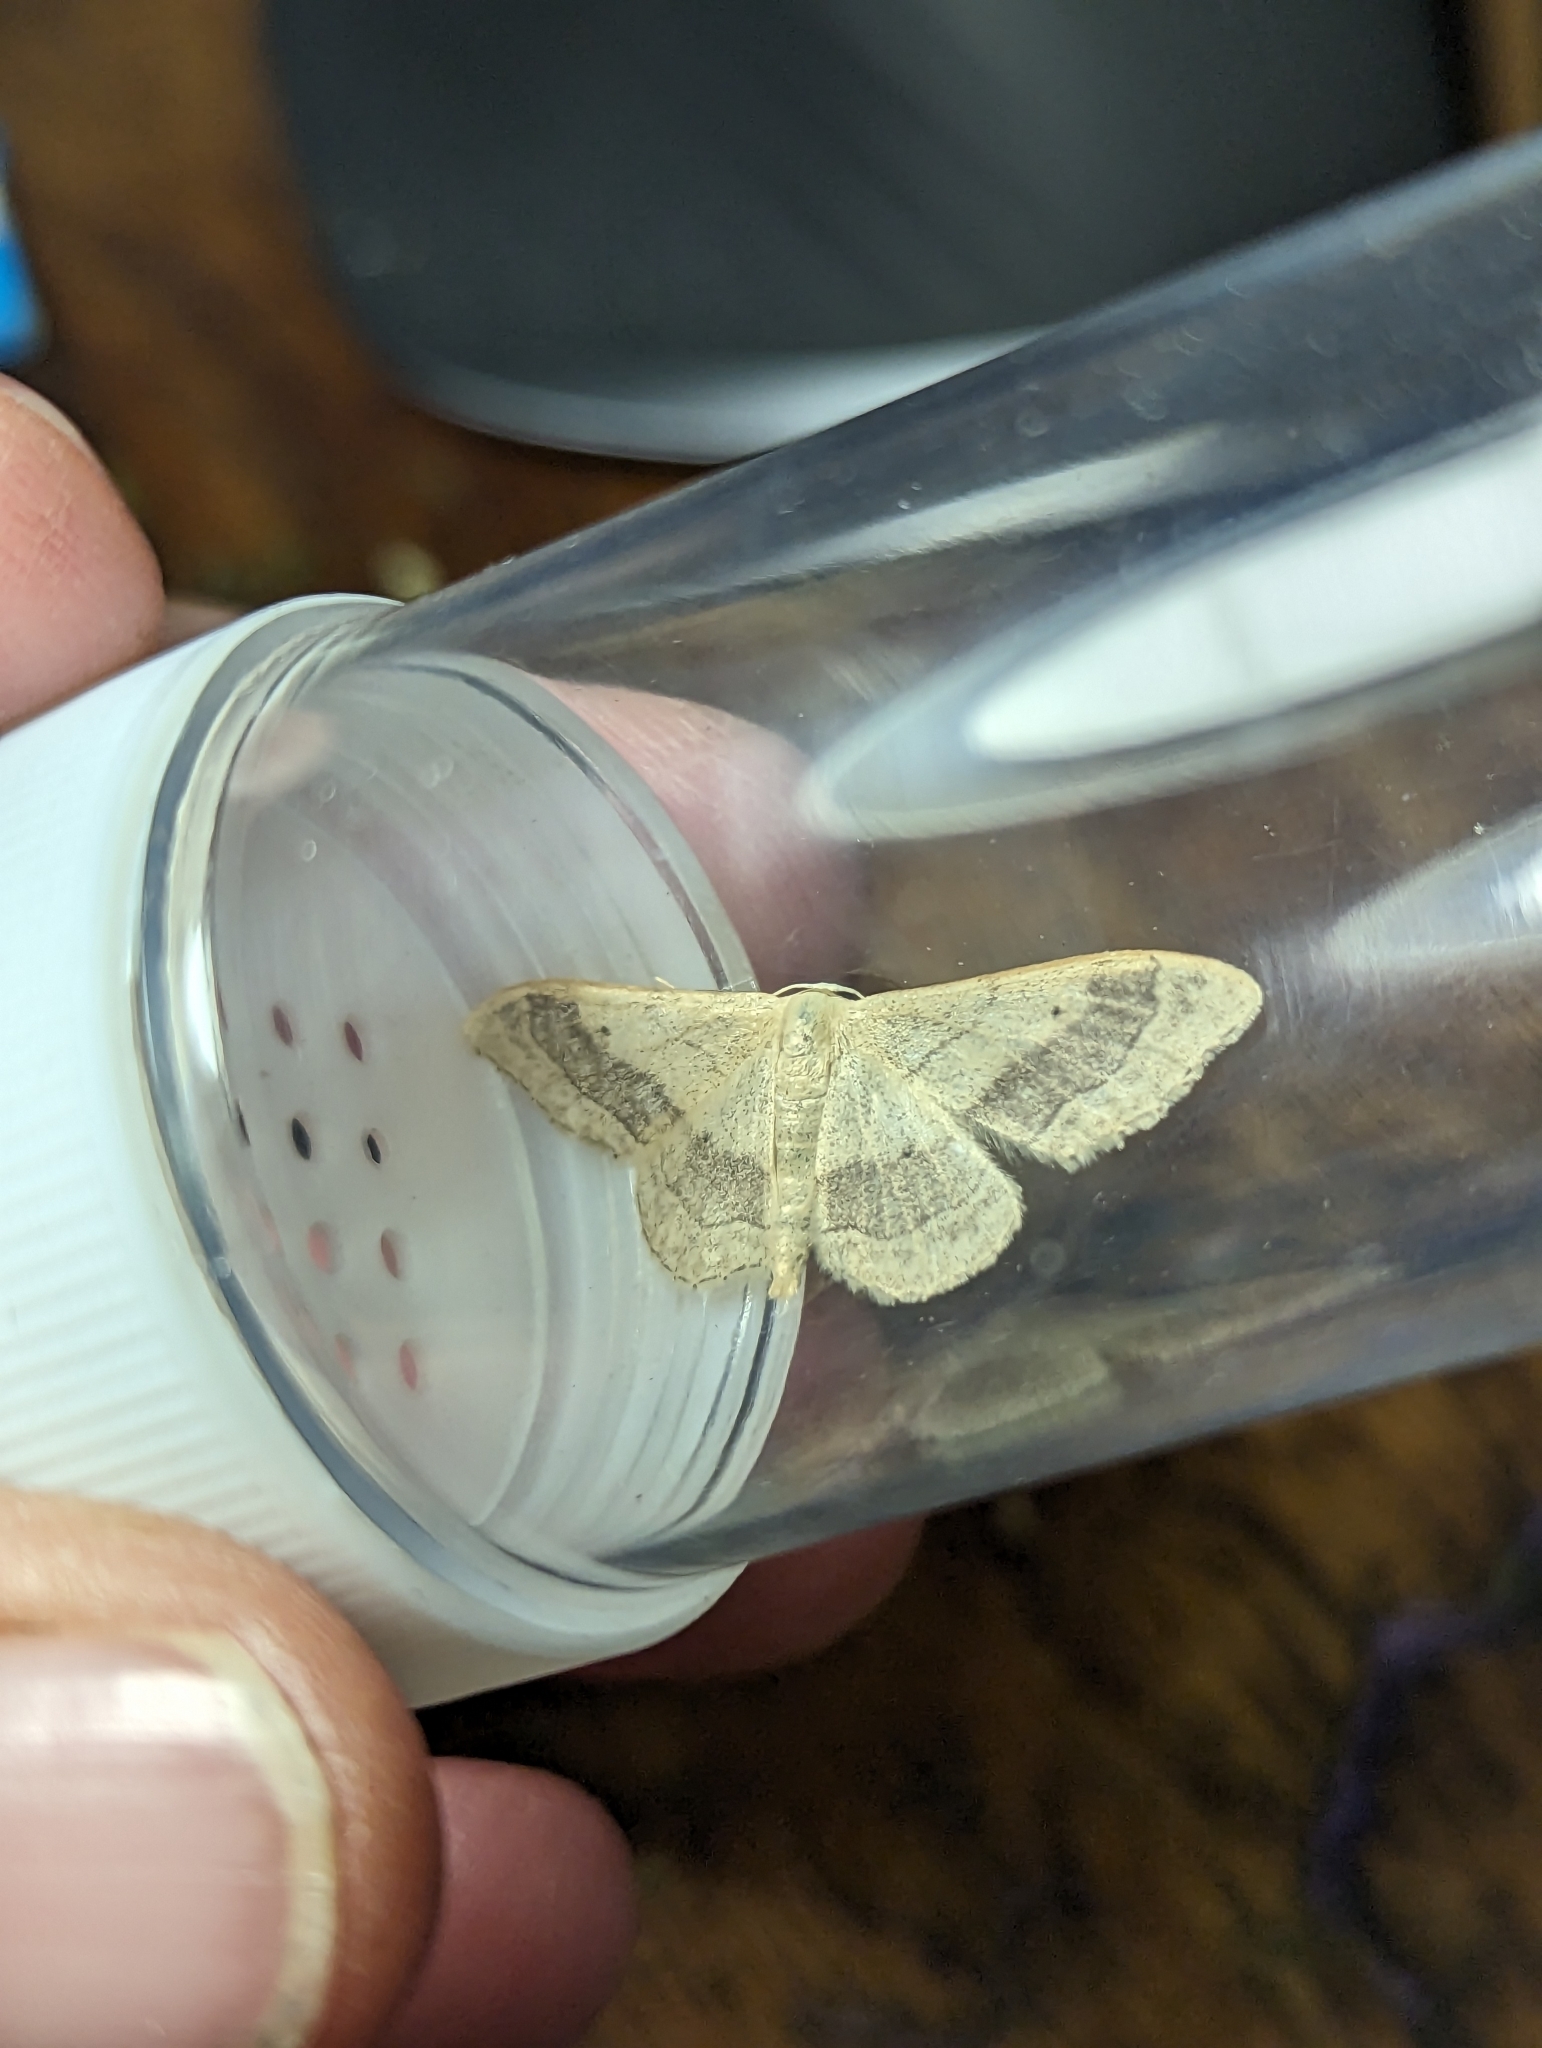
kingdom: Animalia
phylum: Arthropoda
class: Insecta
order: Lepidoptera
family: Geometridae
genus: Idaea
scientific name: Idaea aversata
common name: Riband wave
